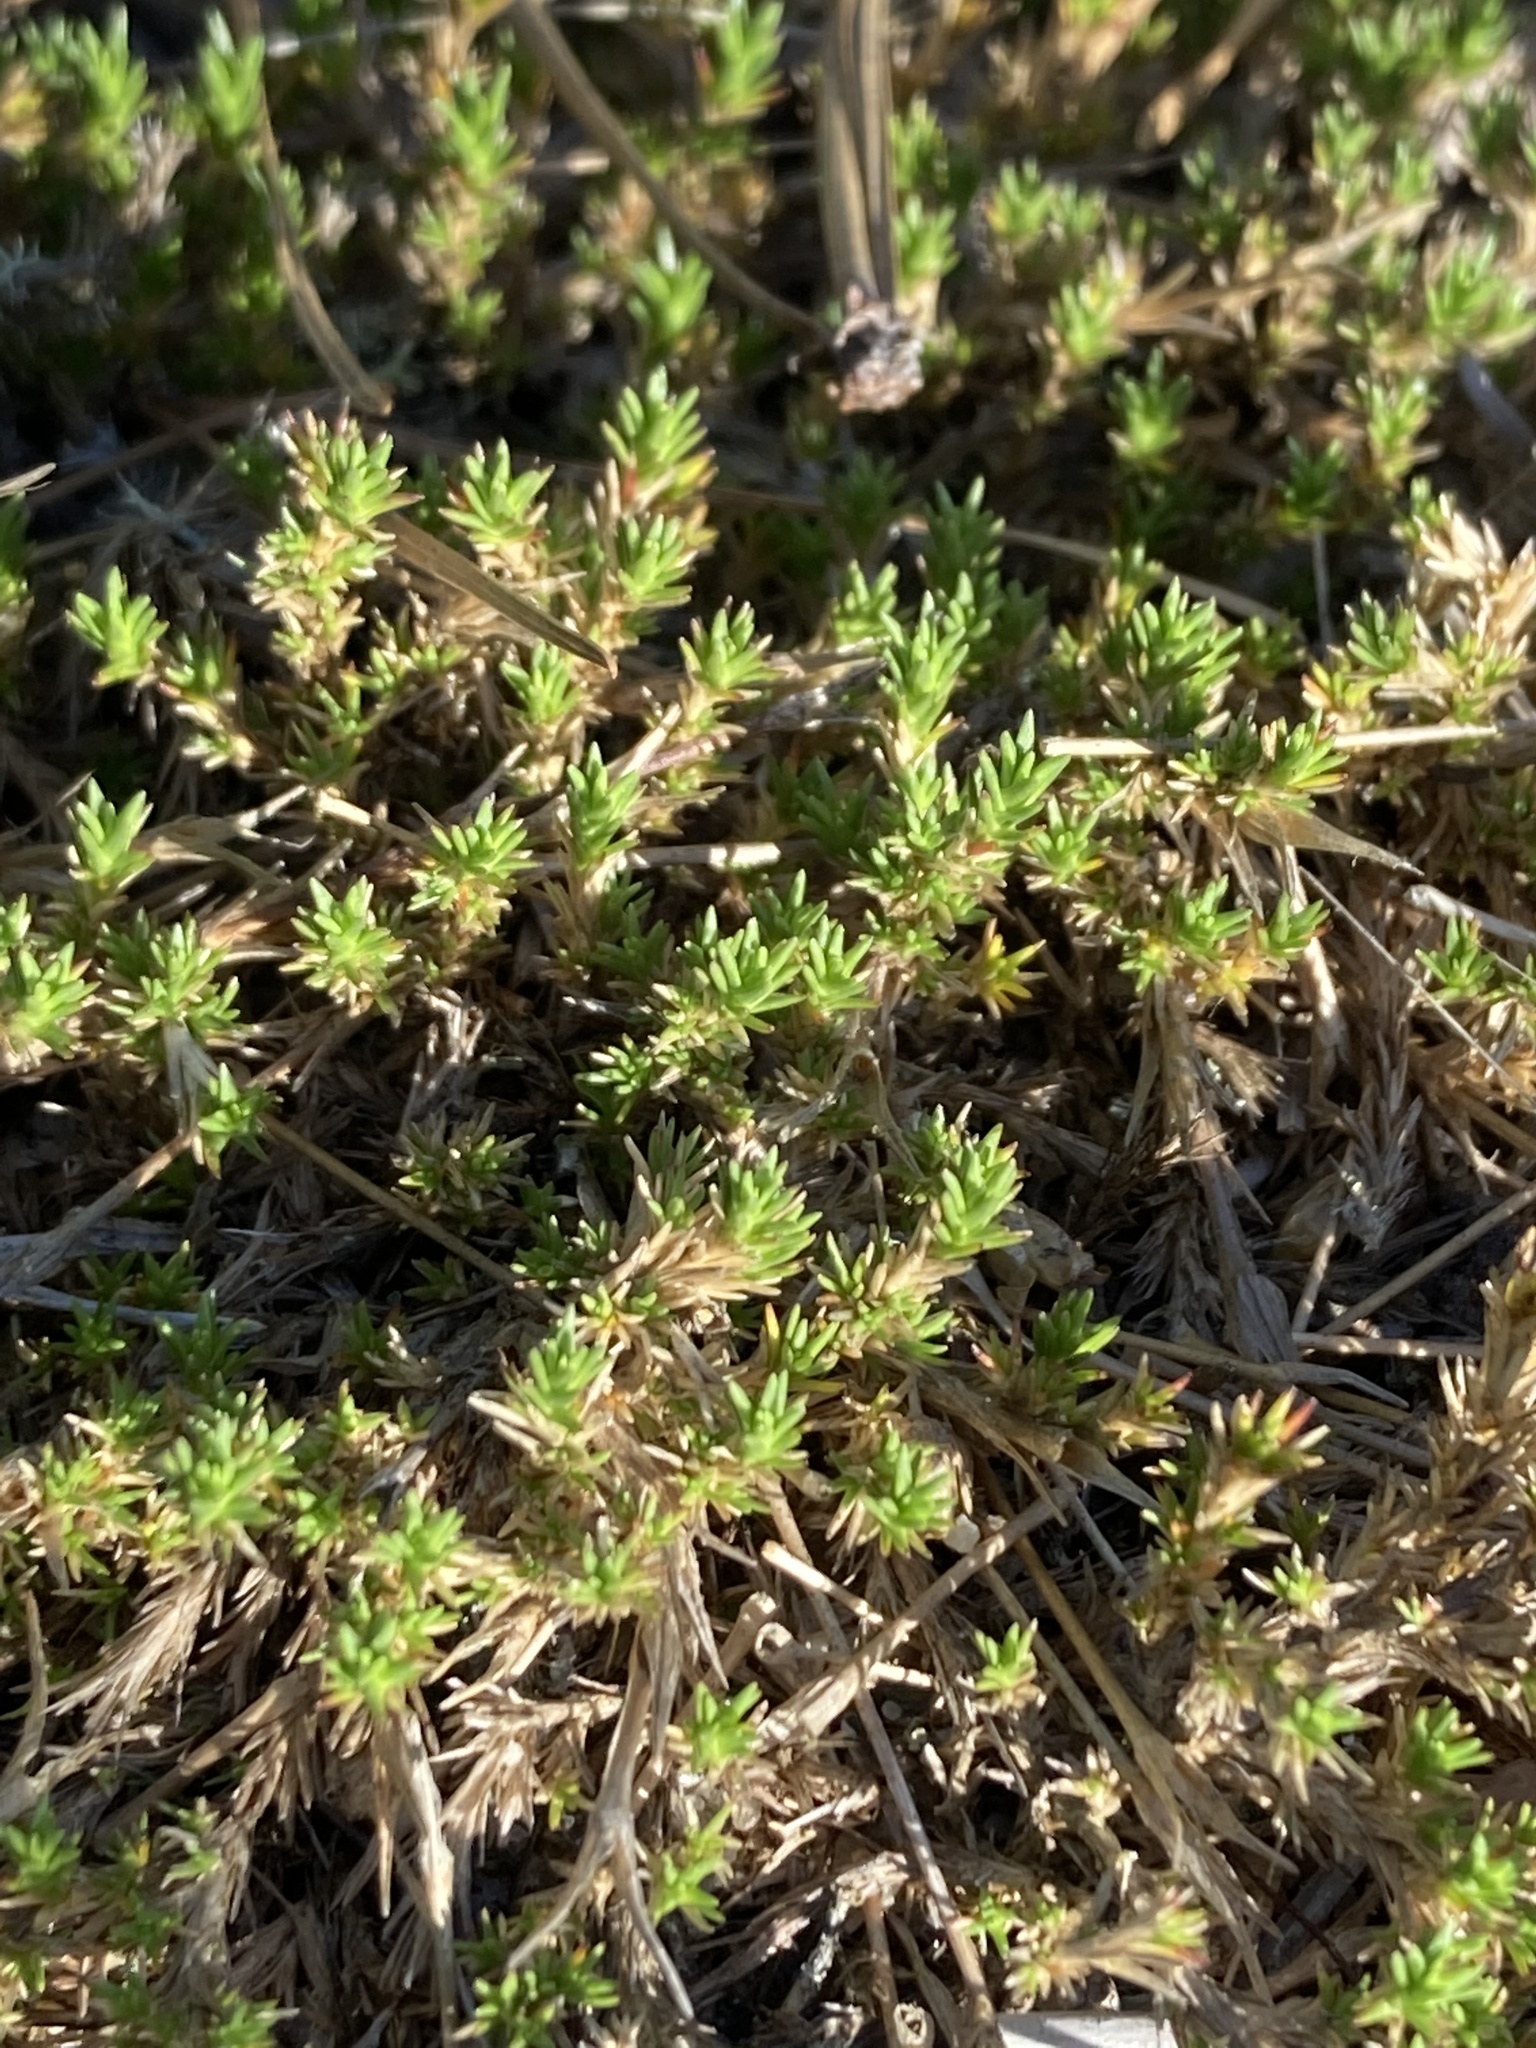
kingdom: Plantae
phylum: Tracheophyta
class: Magnoliopsida
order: Caryophyllales
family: Caryophyllaceae
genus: Geocarpon
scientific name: Geocarpon carolinianum
